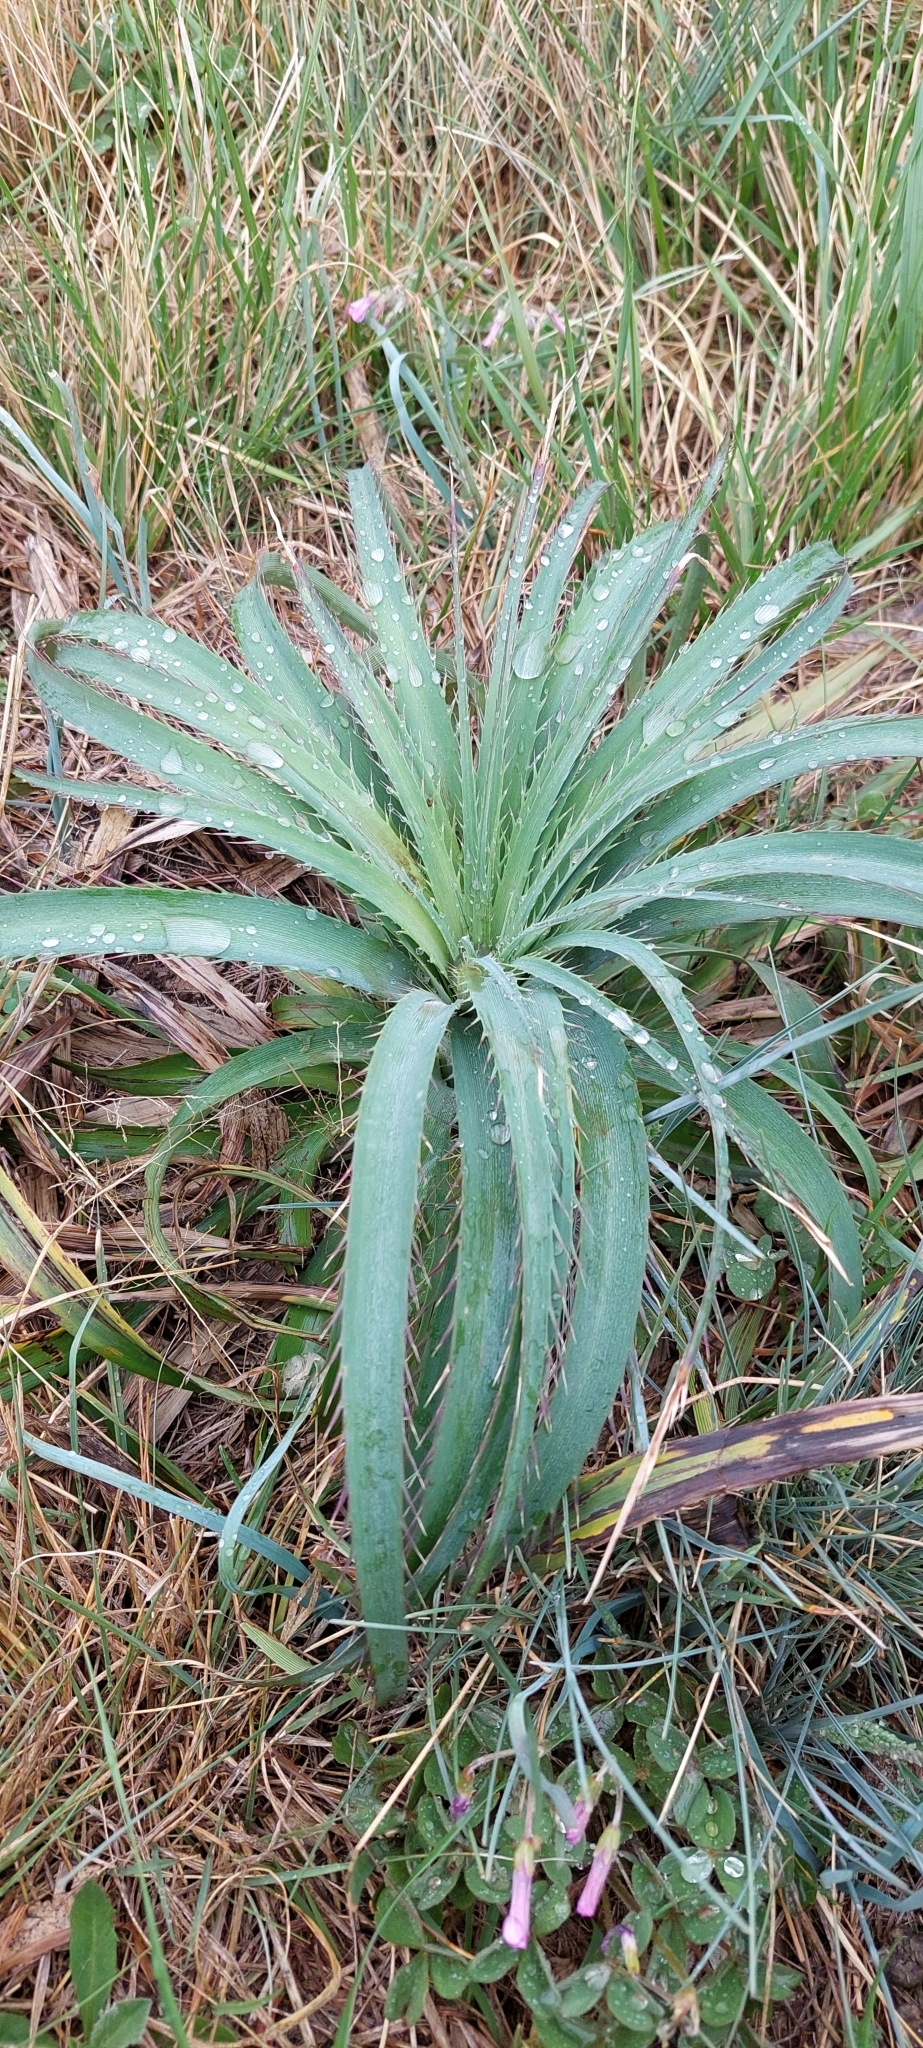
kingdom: Plantae
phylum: Tracheophyta
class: Magnoliopsida
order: Apiales
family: Apiaceae
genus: Eryngium
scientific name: Eryngium humboldtii
